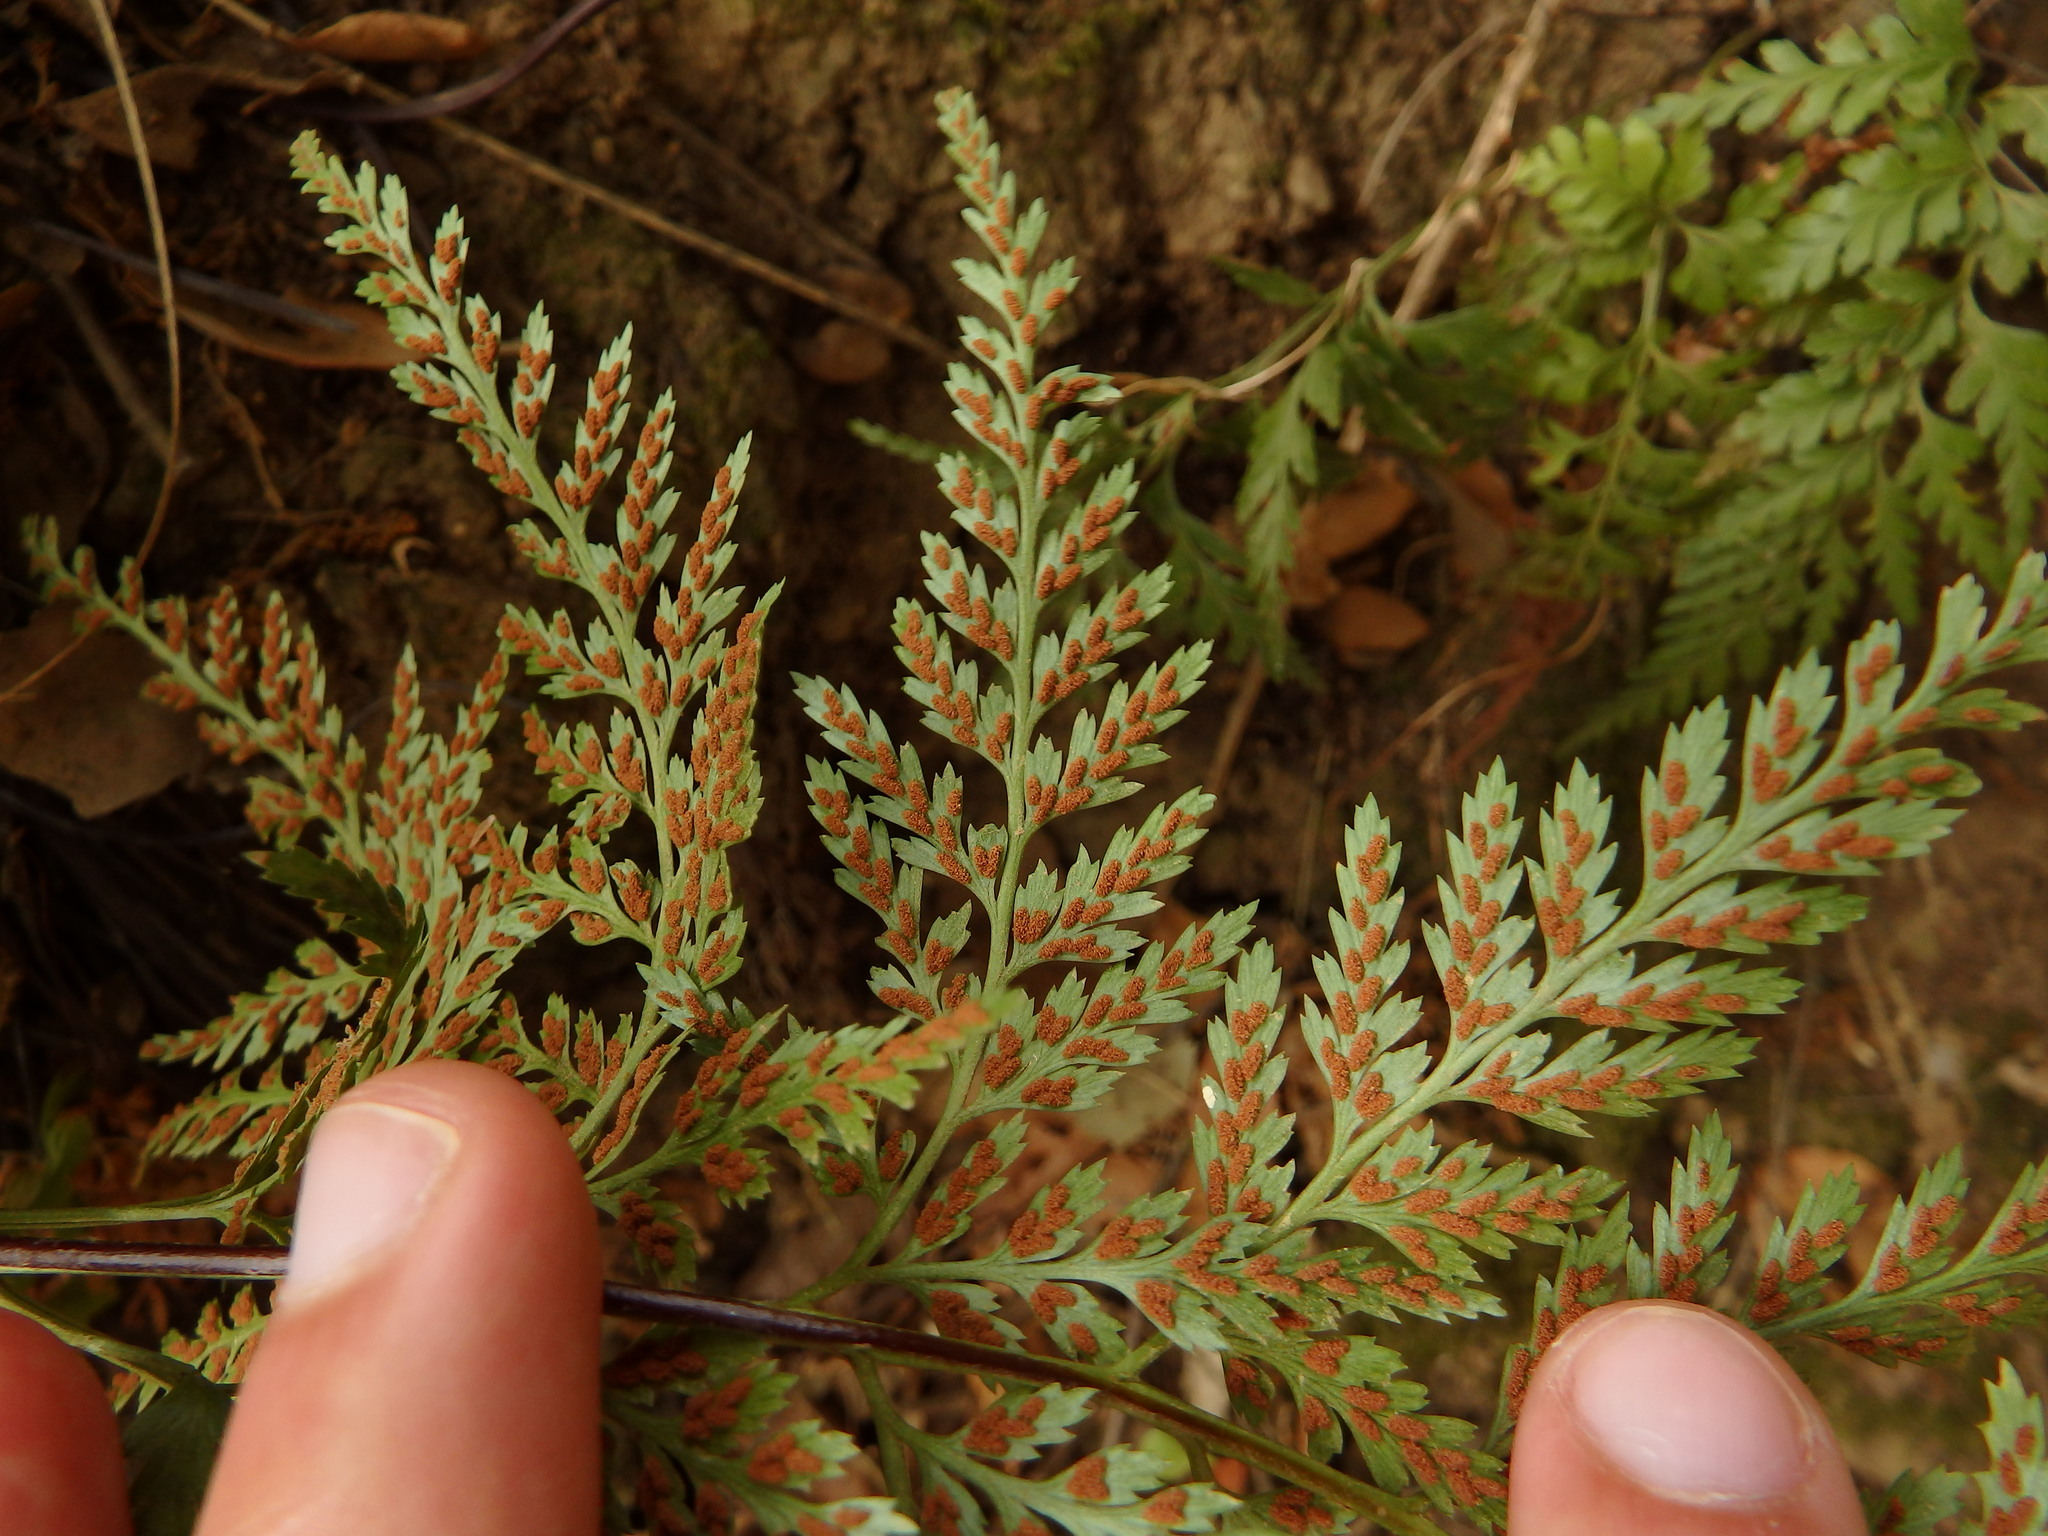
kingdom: Plantae
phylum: Tracheophyta
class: Polypodiopsida
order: Polypodiales
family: Aspleniaceae
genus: Asplenium
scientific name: Asplenium onopteris
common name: Irish spleenwort
